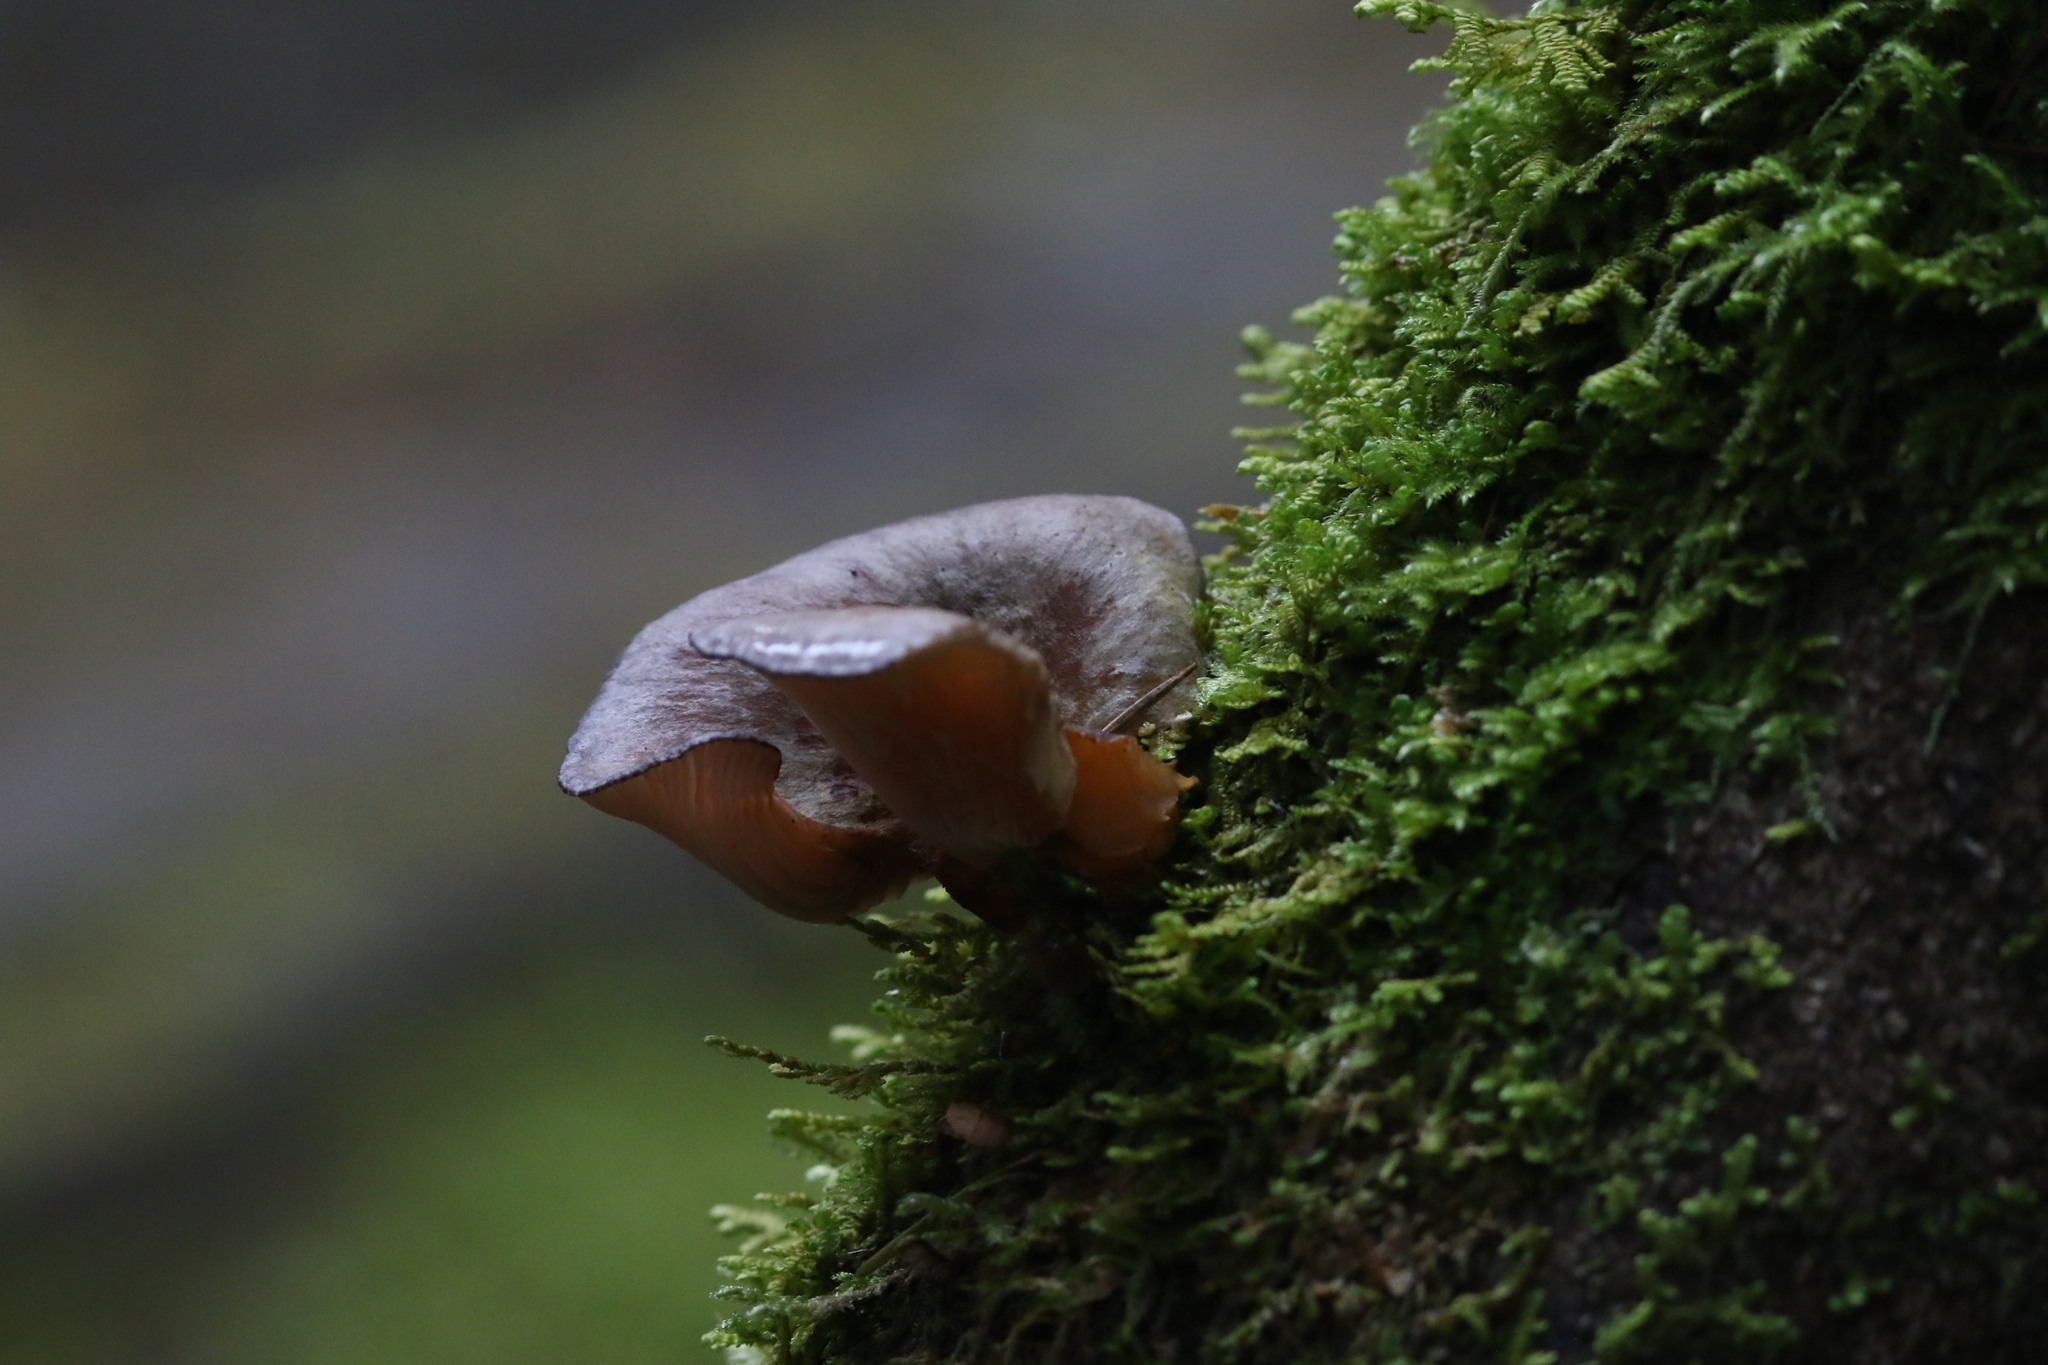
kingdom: Fungi
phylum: Basidiomycota
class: Agaricomycetes
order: Agaricales
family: Sarcomyxaceae
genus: Sarcomyxa
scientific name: Sarcomyxa serotina
